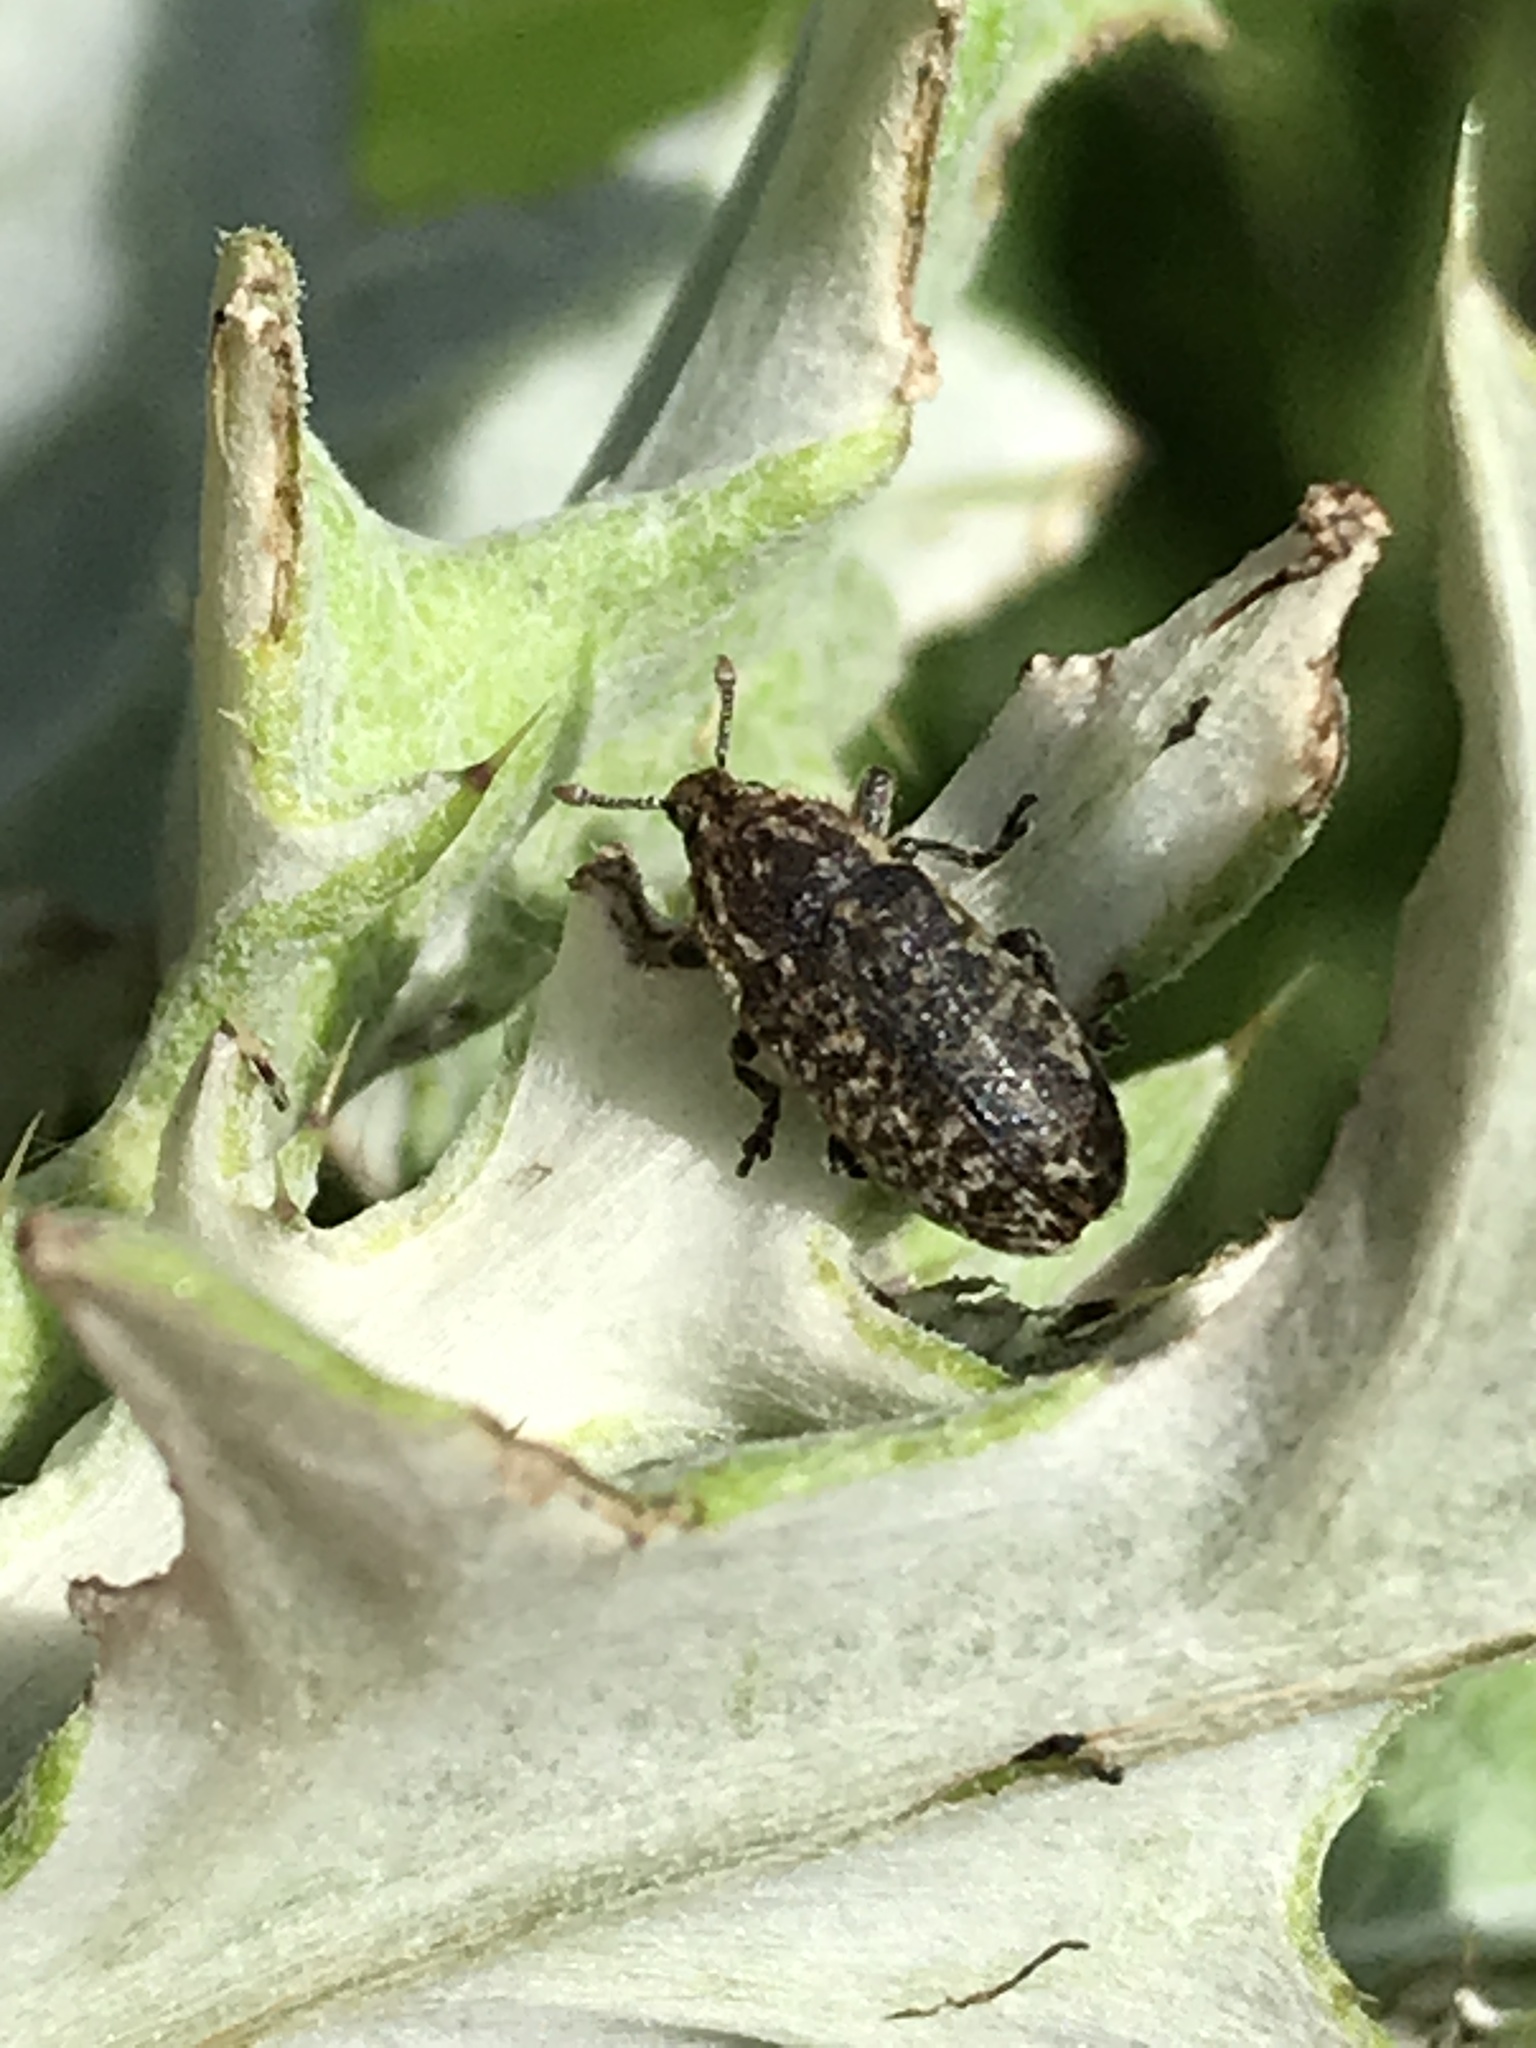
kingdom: Animalia
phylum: Arthropoda
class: Insecta
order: Coleoptera
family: Curculionidae
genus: Rhinocyllus
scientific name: Rhinocyllus conicus
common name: Weevil
